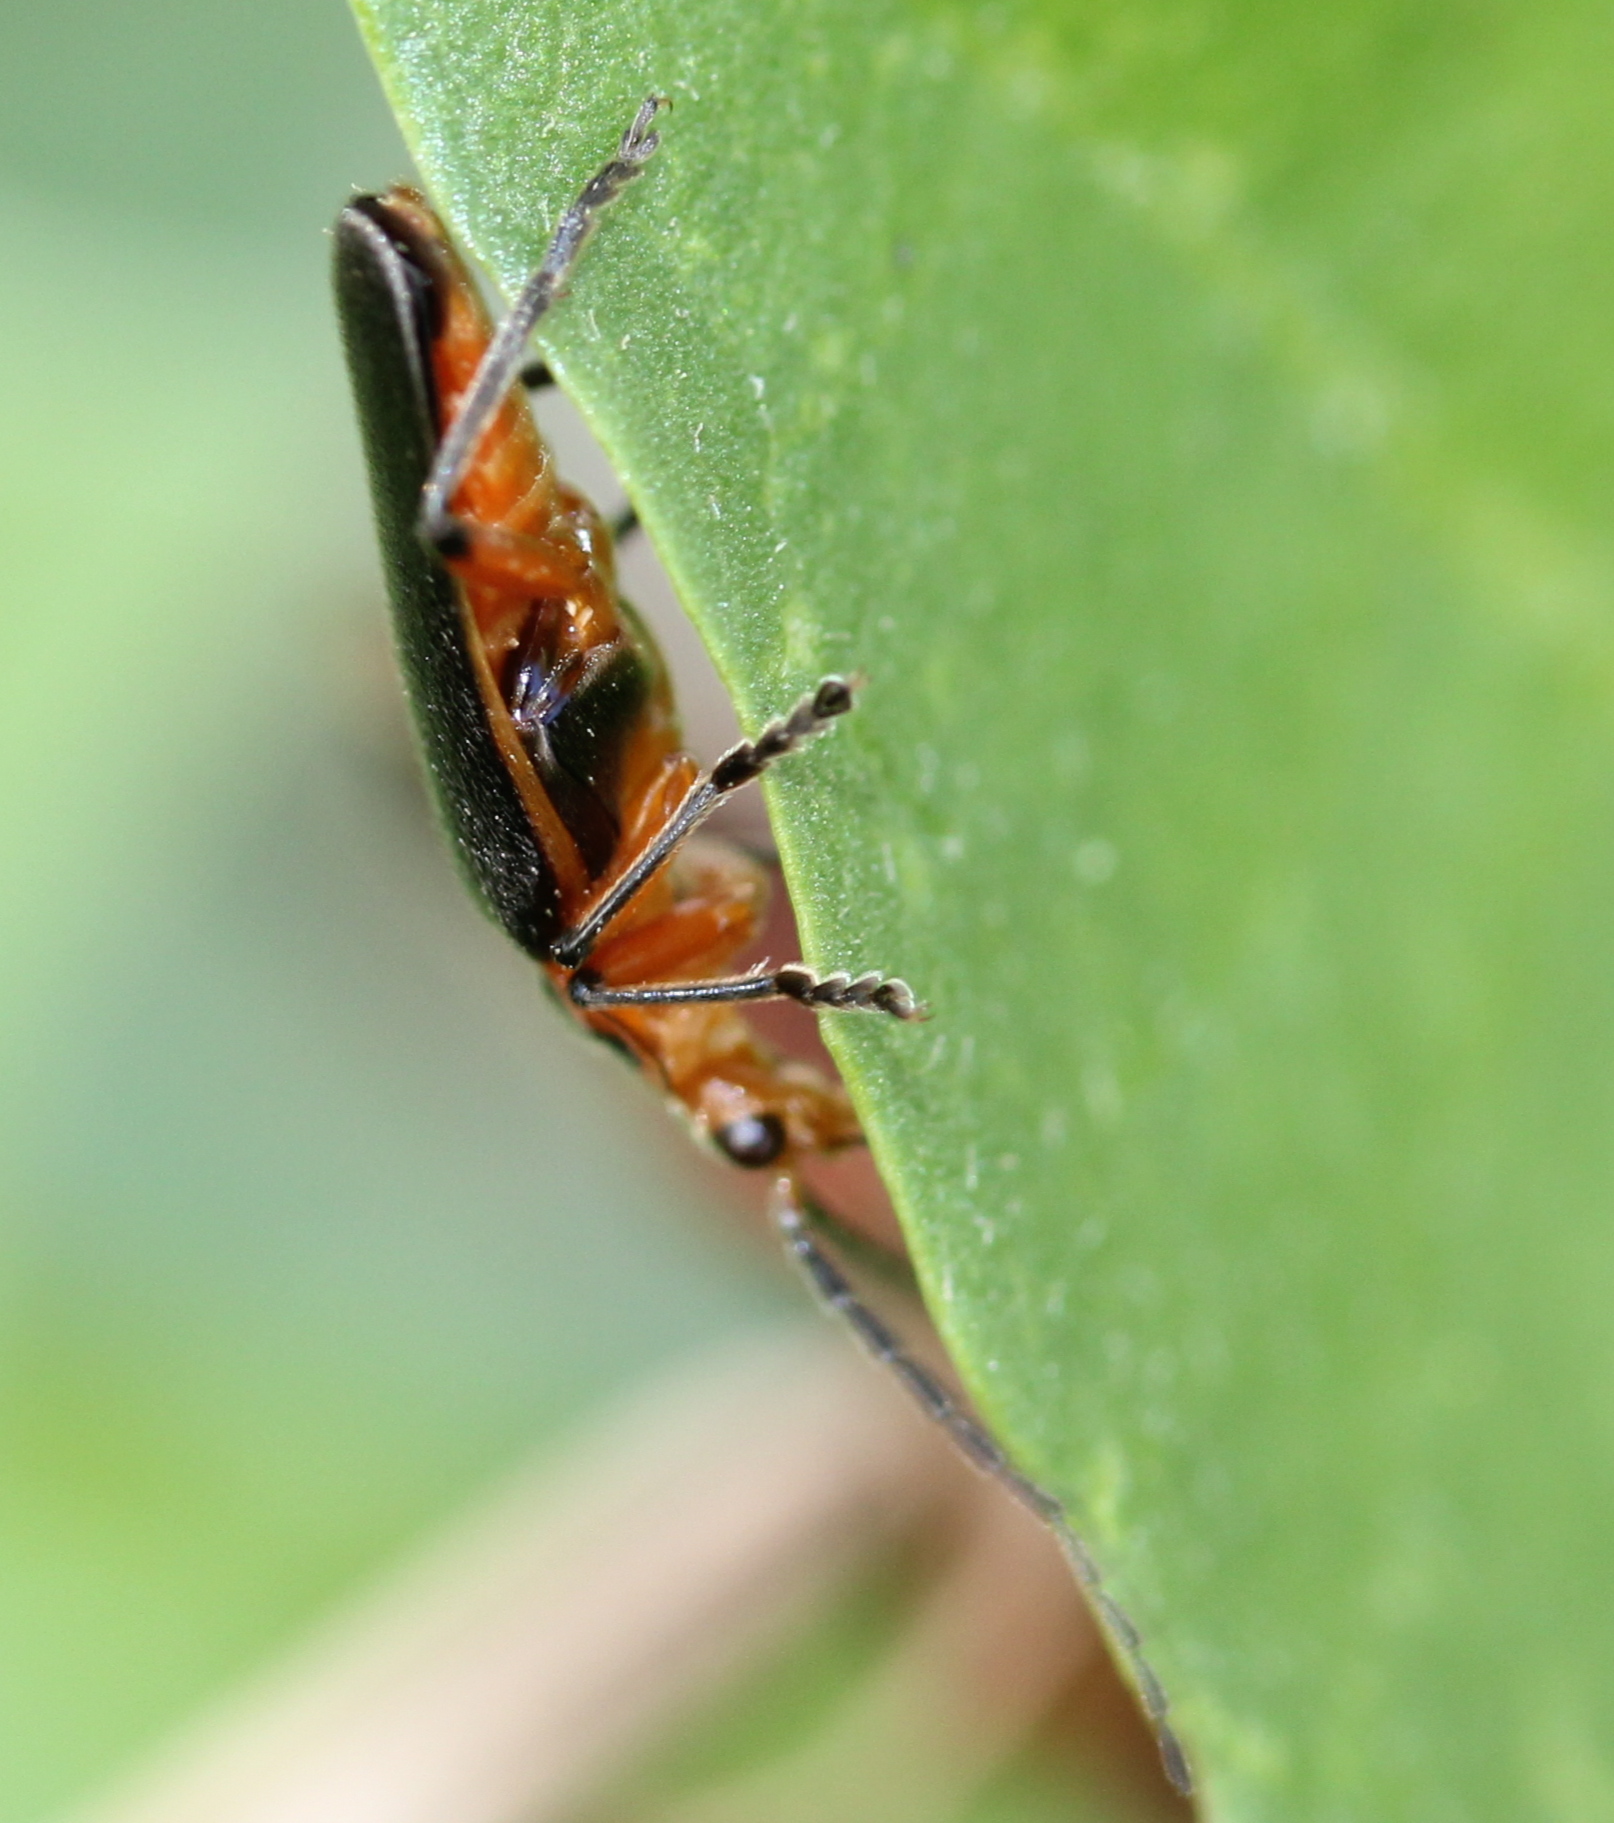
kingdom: Animalia
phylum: Arthropoda
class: Insecta
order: Coleoptera
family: Cantharidae
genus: Atalantycha
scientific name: Atalantycha bilineata
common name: Two-lined leatherwing
